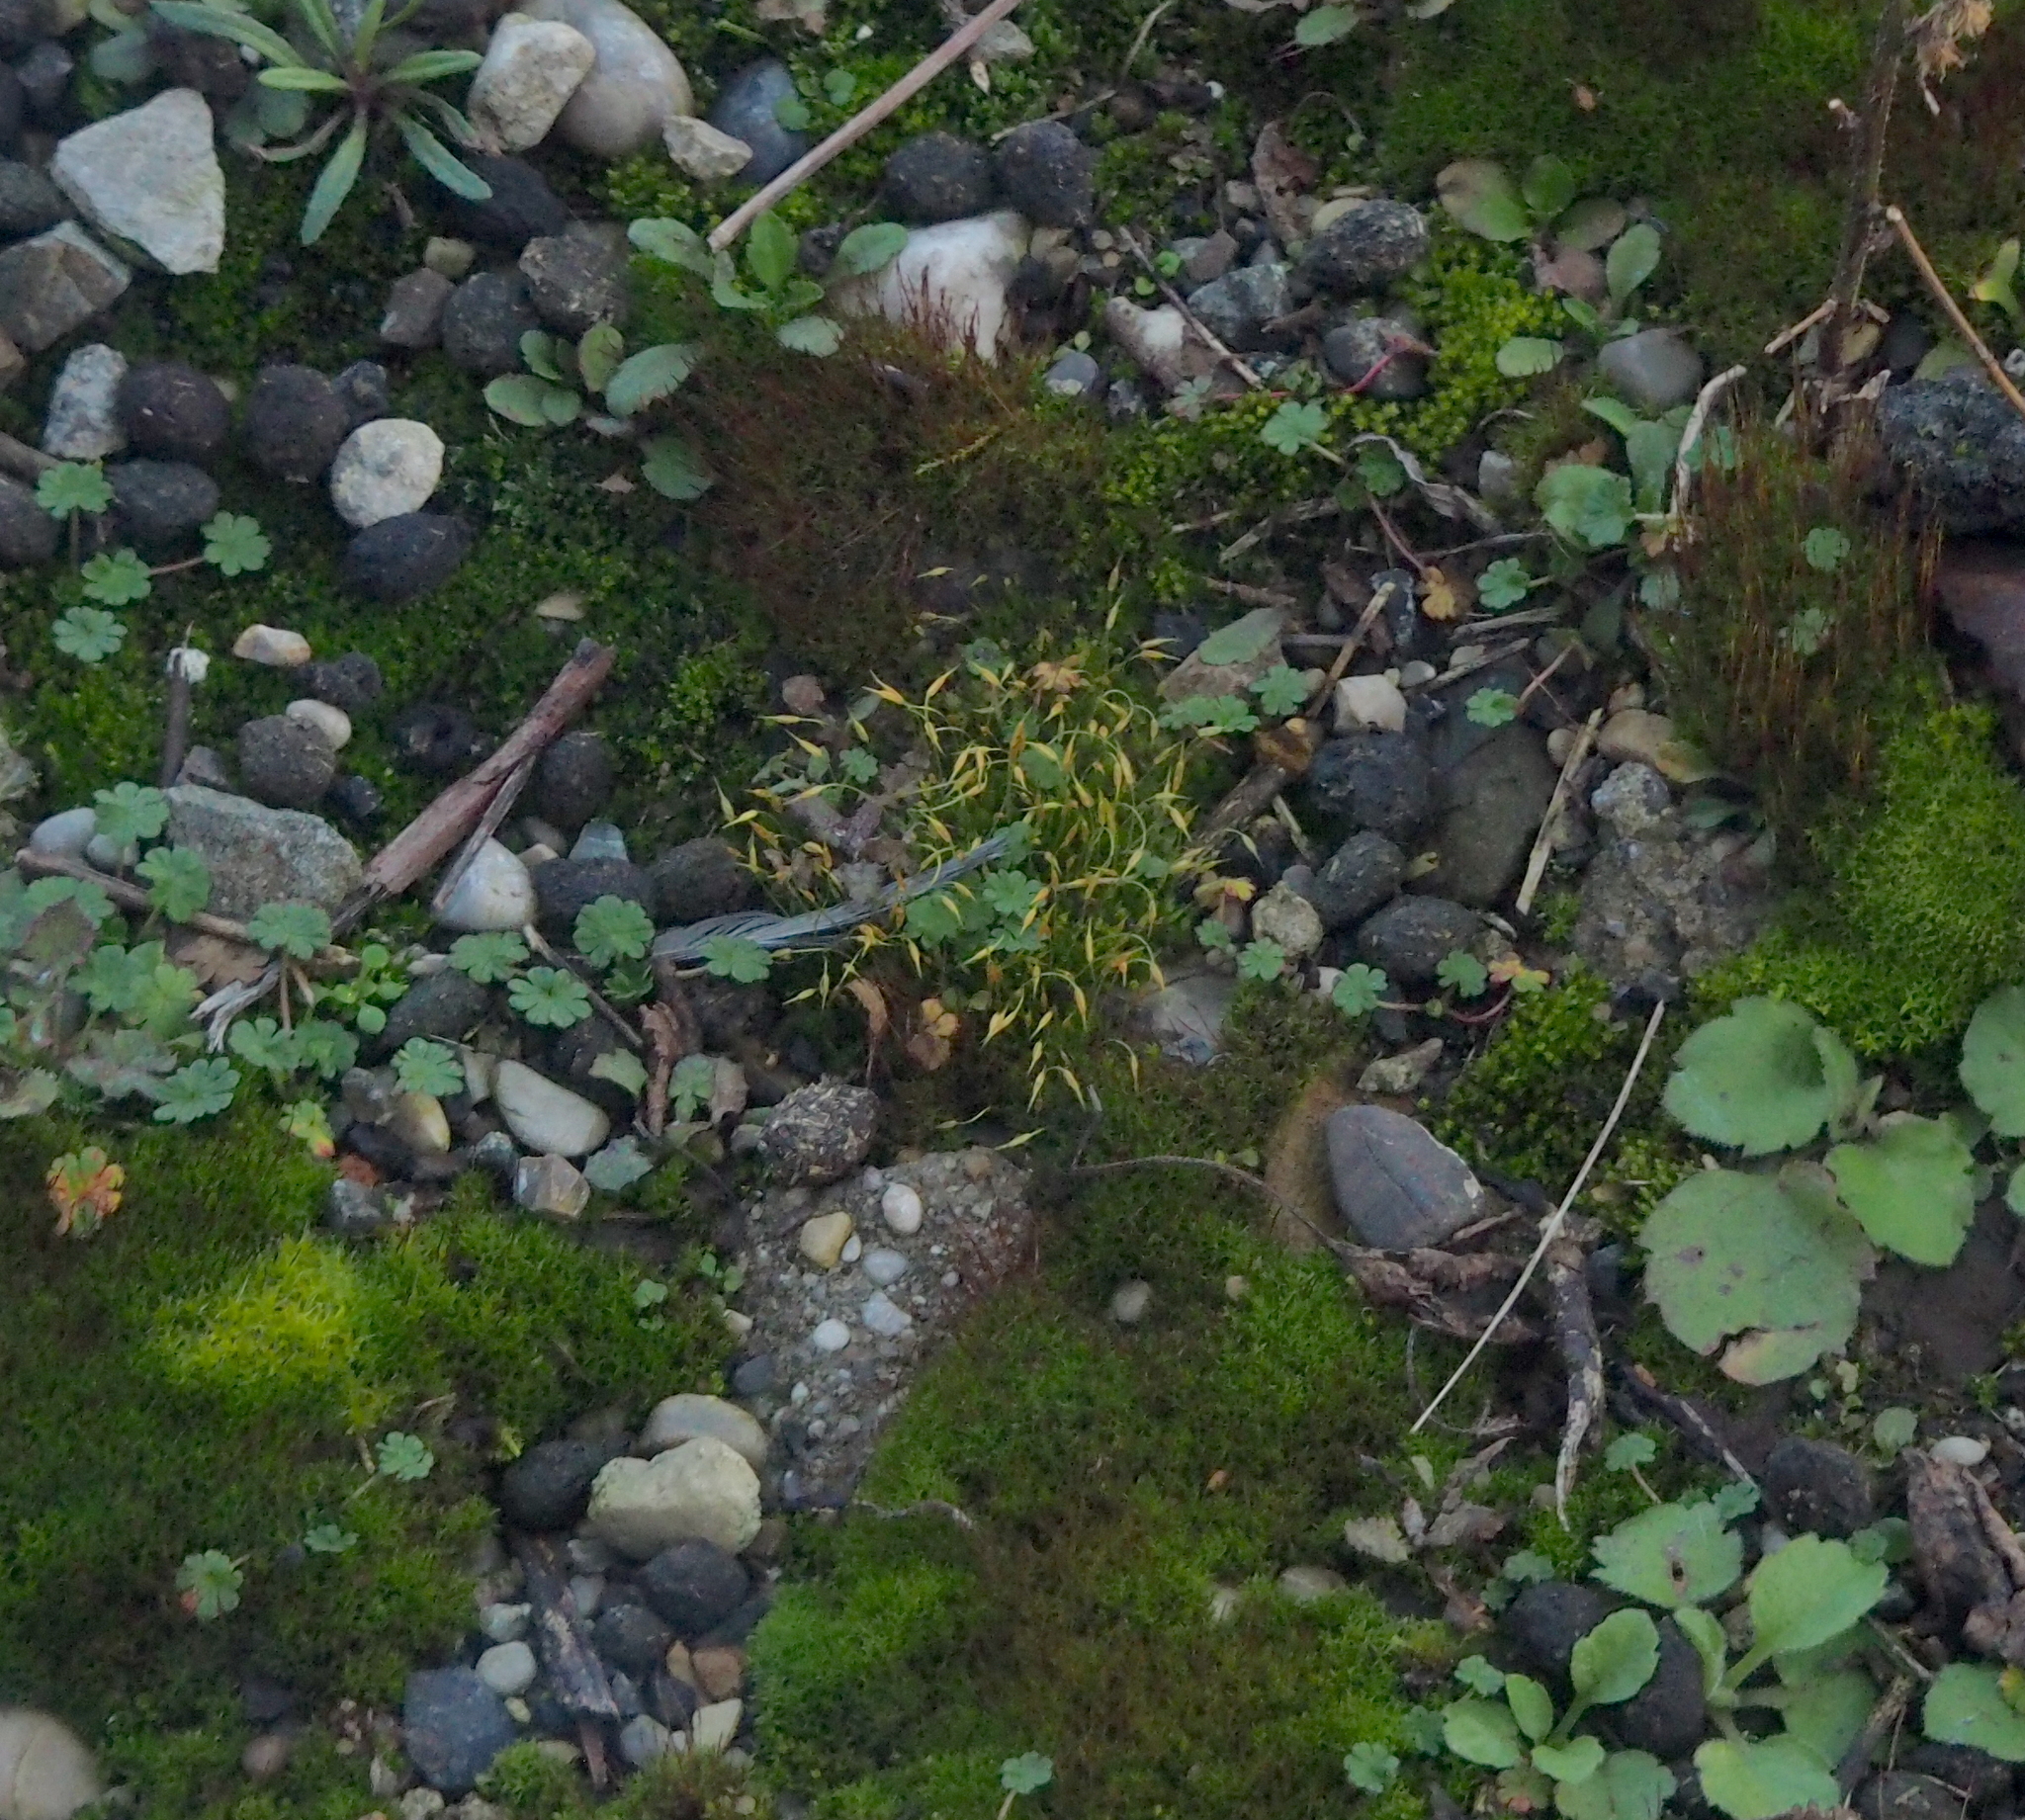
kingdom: Plantae
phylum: Bryophyta
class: Bryopsida
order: Funariales
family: Funariaceae
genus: Funaria
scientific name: Funaria hygrometrica
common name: Common cord moss
